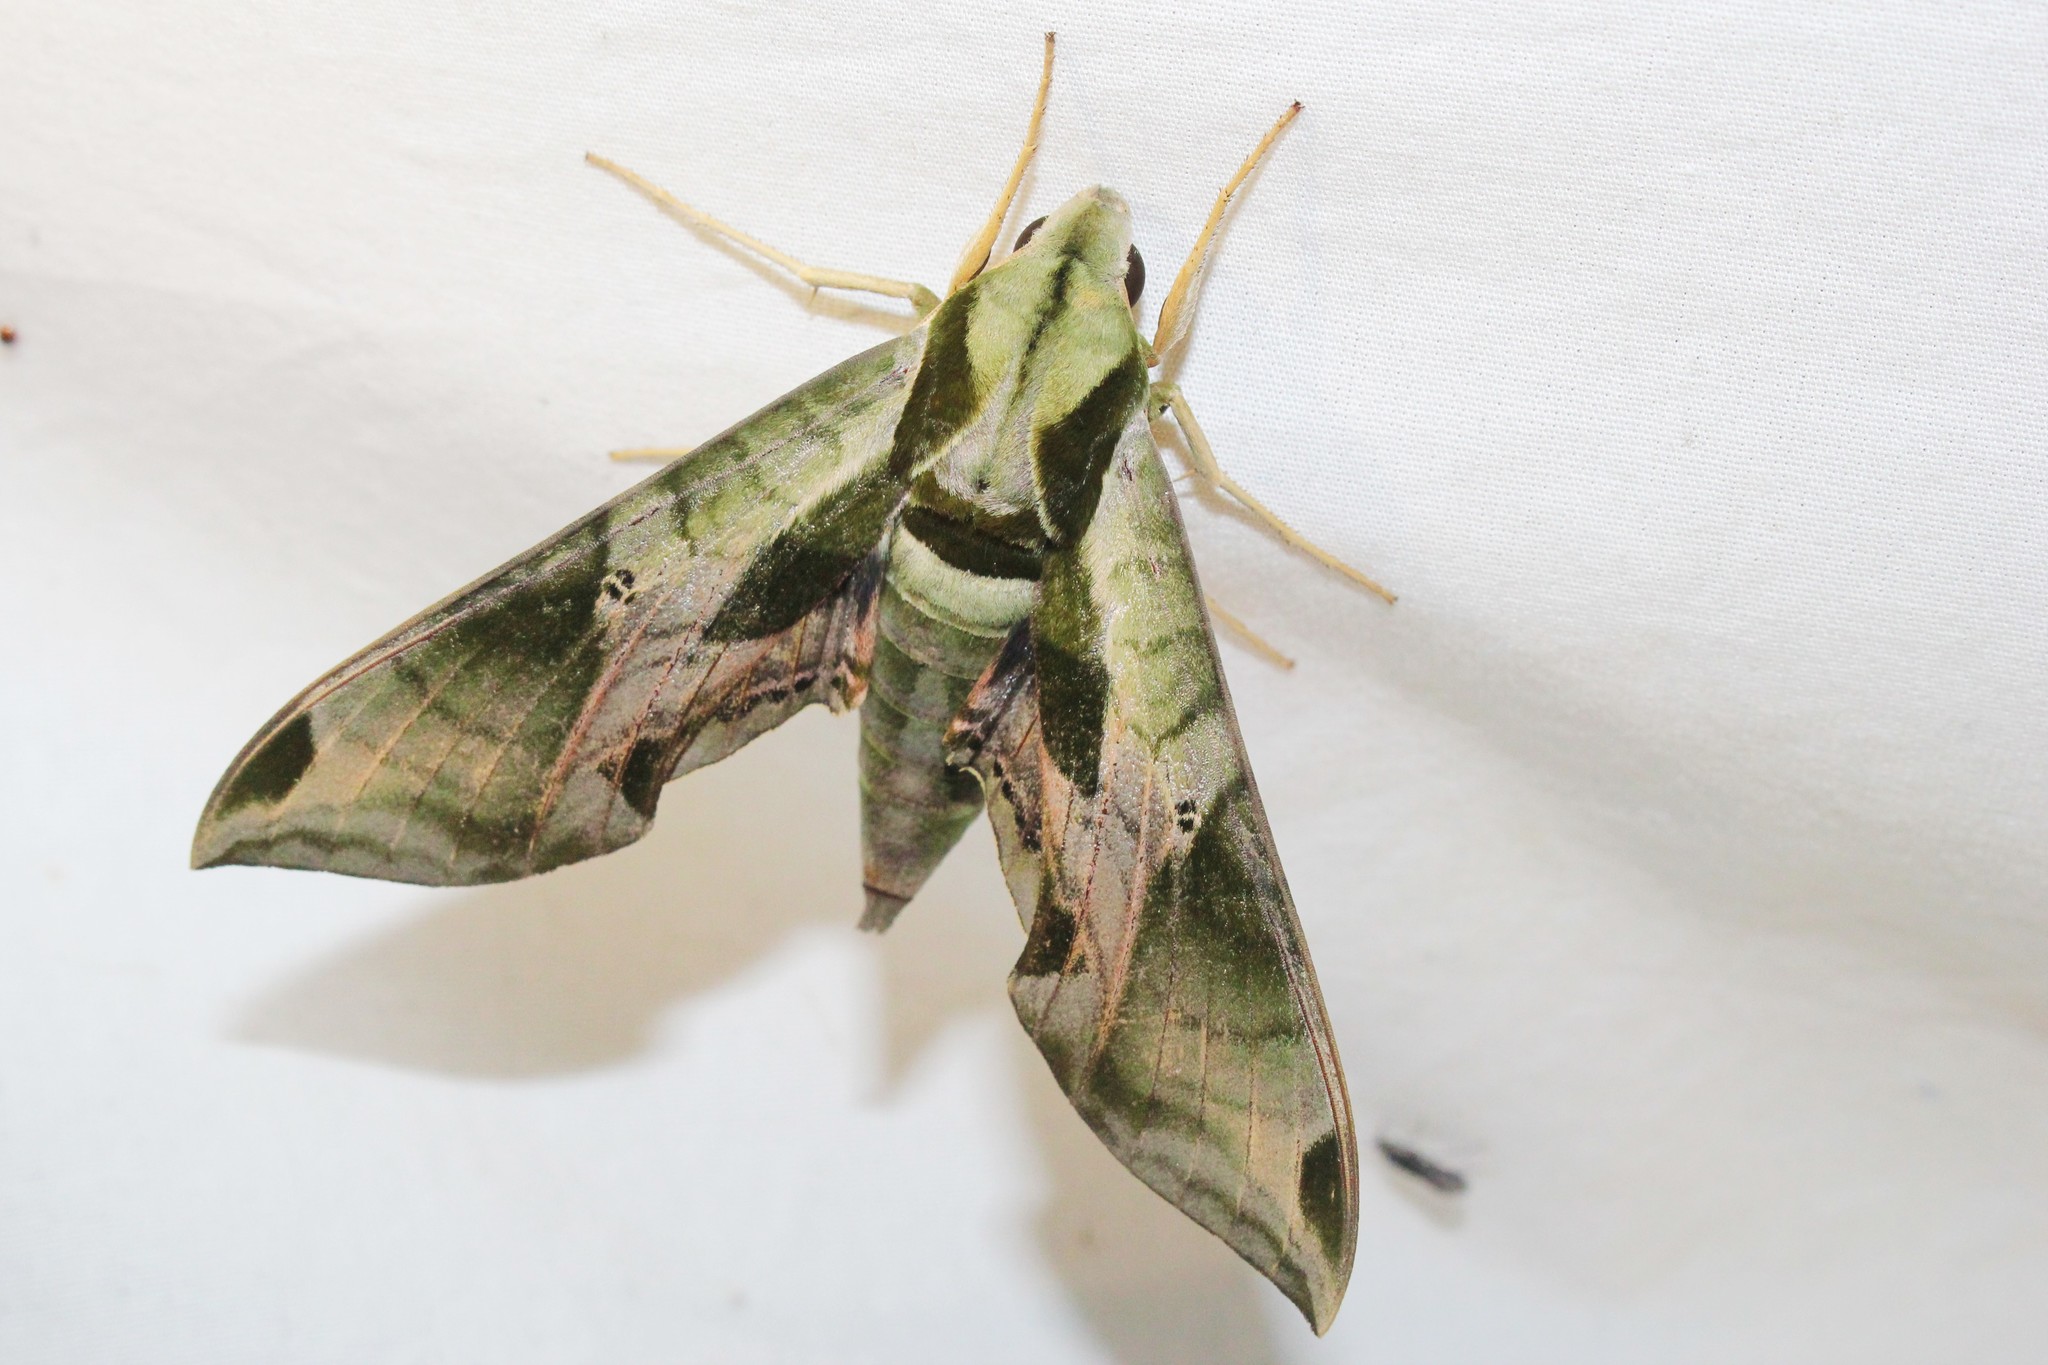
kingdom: Animalia
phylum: Arthropoda
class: Insecta
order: Lepidoptera
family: Sphingidae
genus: Eumorpha
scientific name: Eumorpha pandorus
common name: Pandora sphinx
